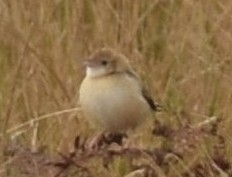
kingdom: Animalia
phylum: Chordata
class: Aves
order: Passeriformes
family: Cisticolidae
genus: Cisticola
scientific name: Cisticola natalensis
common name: Croaking cisticola
